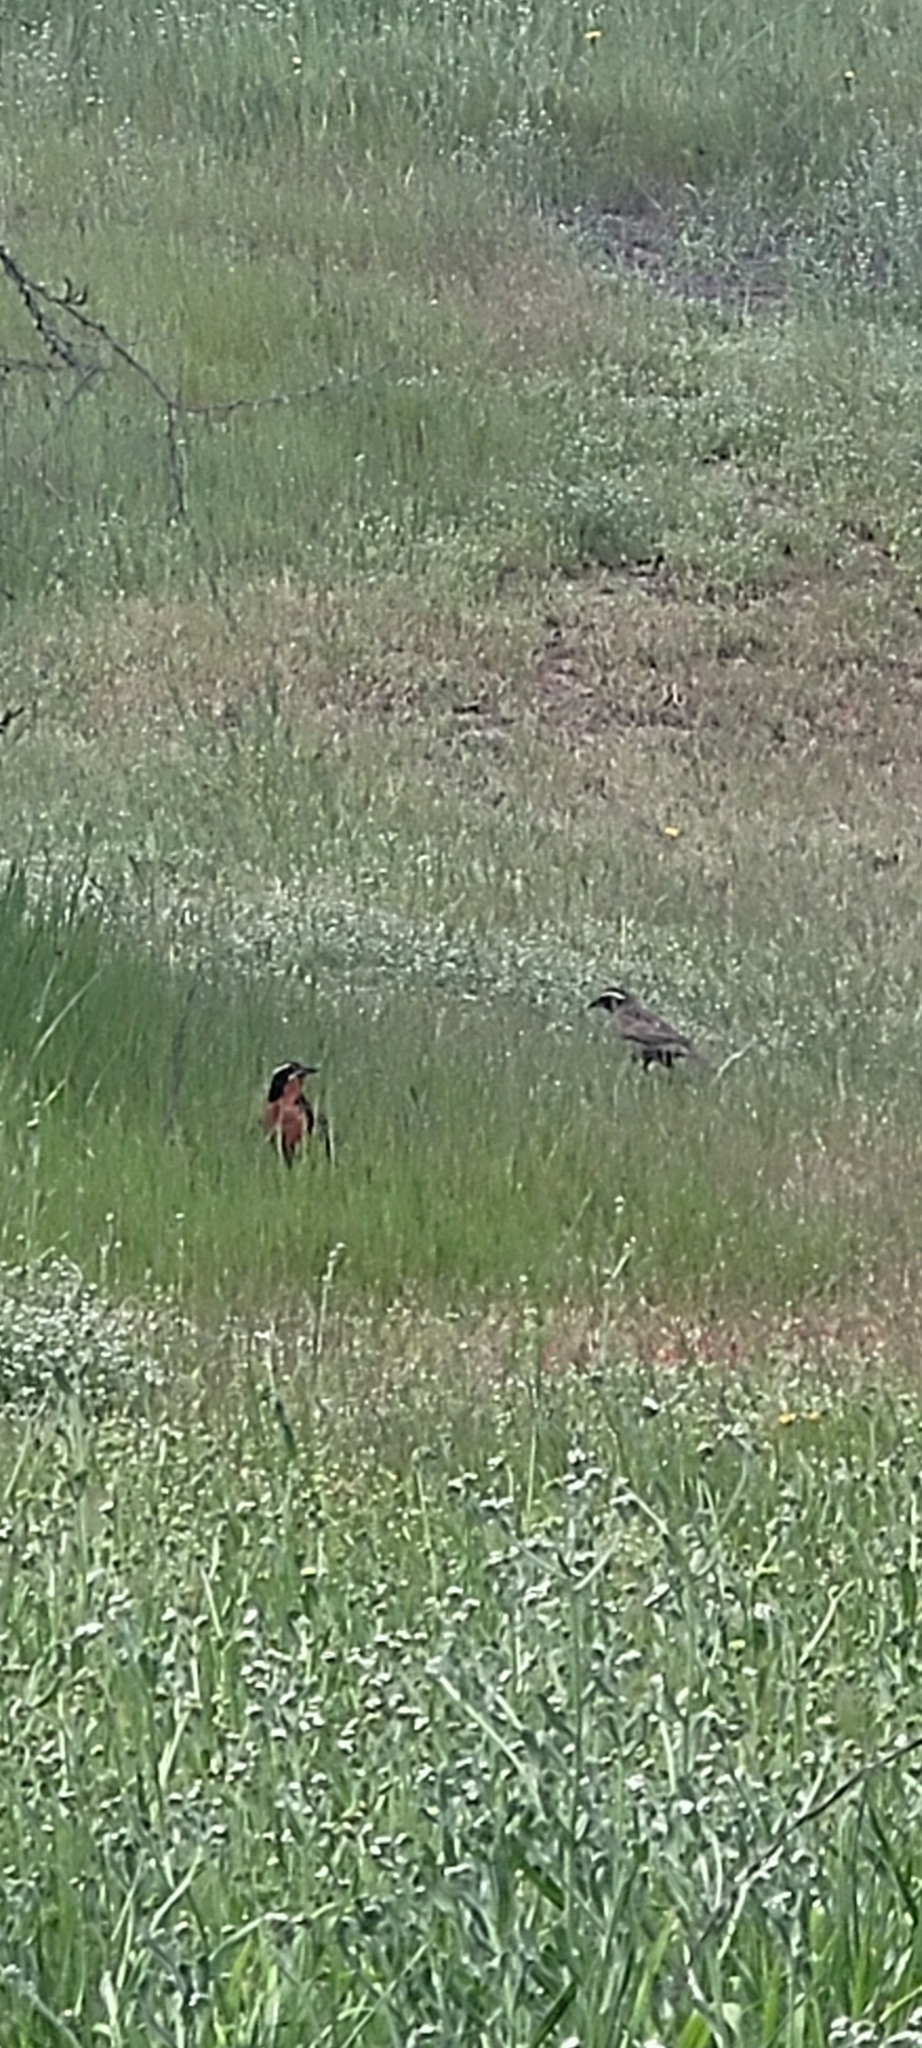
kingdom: Animalia
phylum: Chordata
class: Aves
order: Passeriformes
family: Icteridae
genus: Sturnella
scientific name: Sturnella loyca
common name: Long-tailed meadowlark
